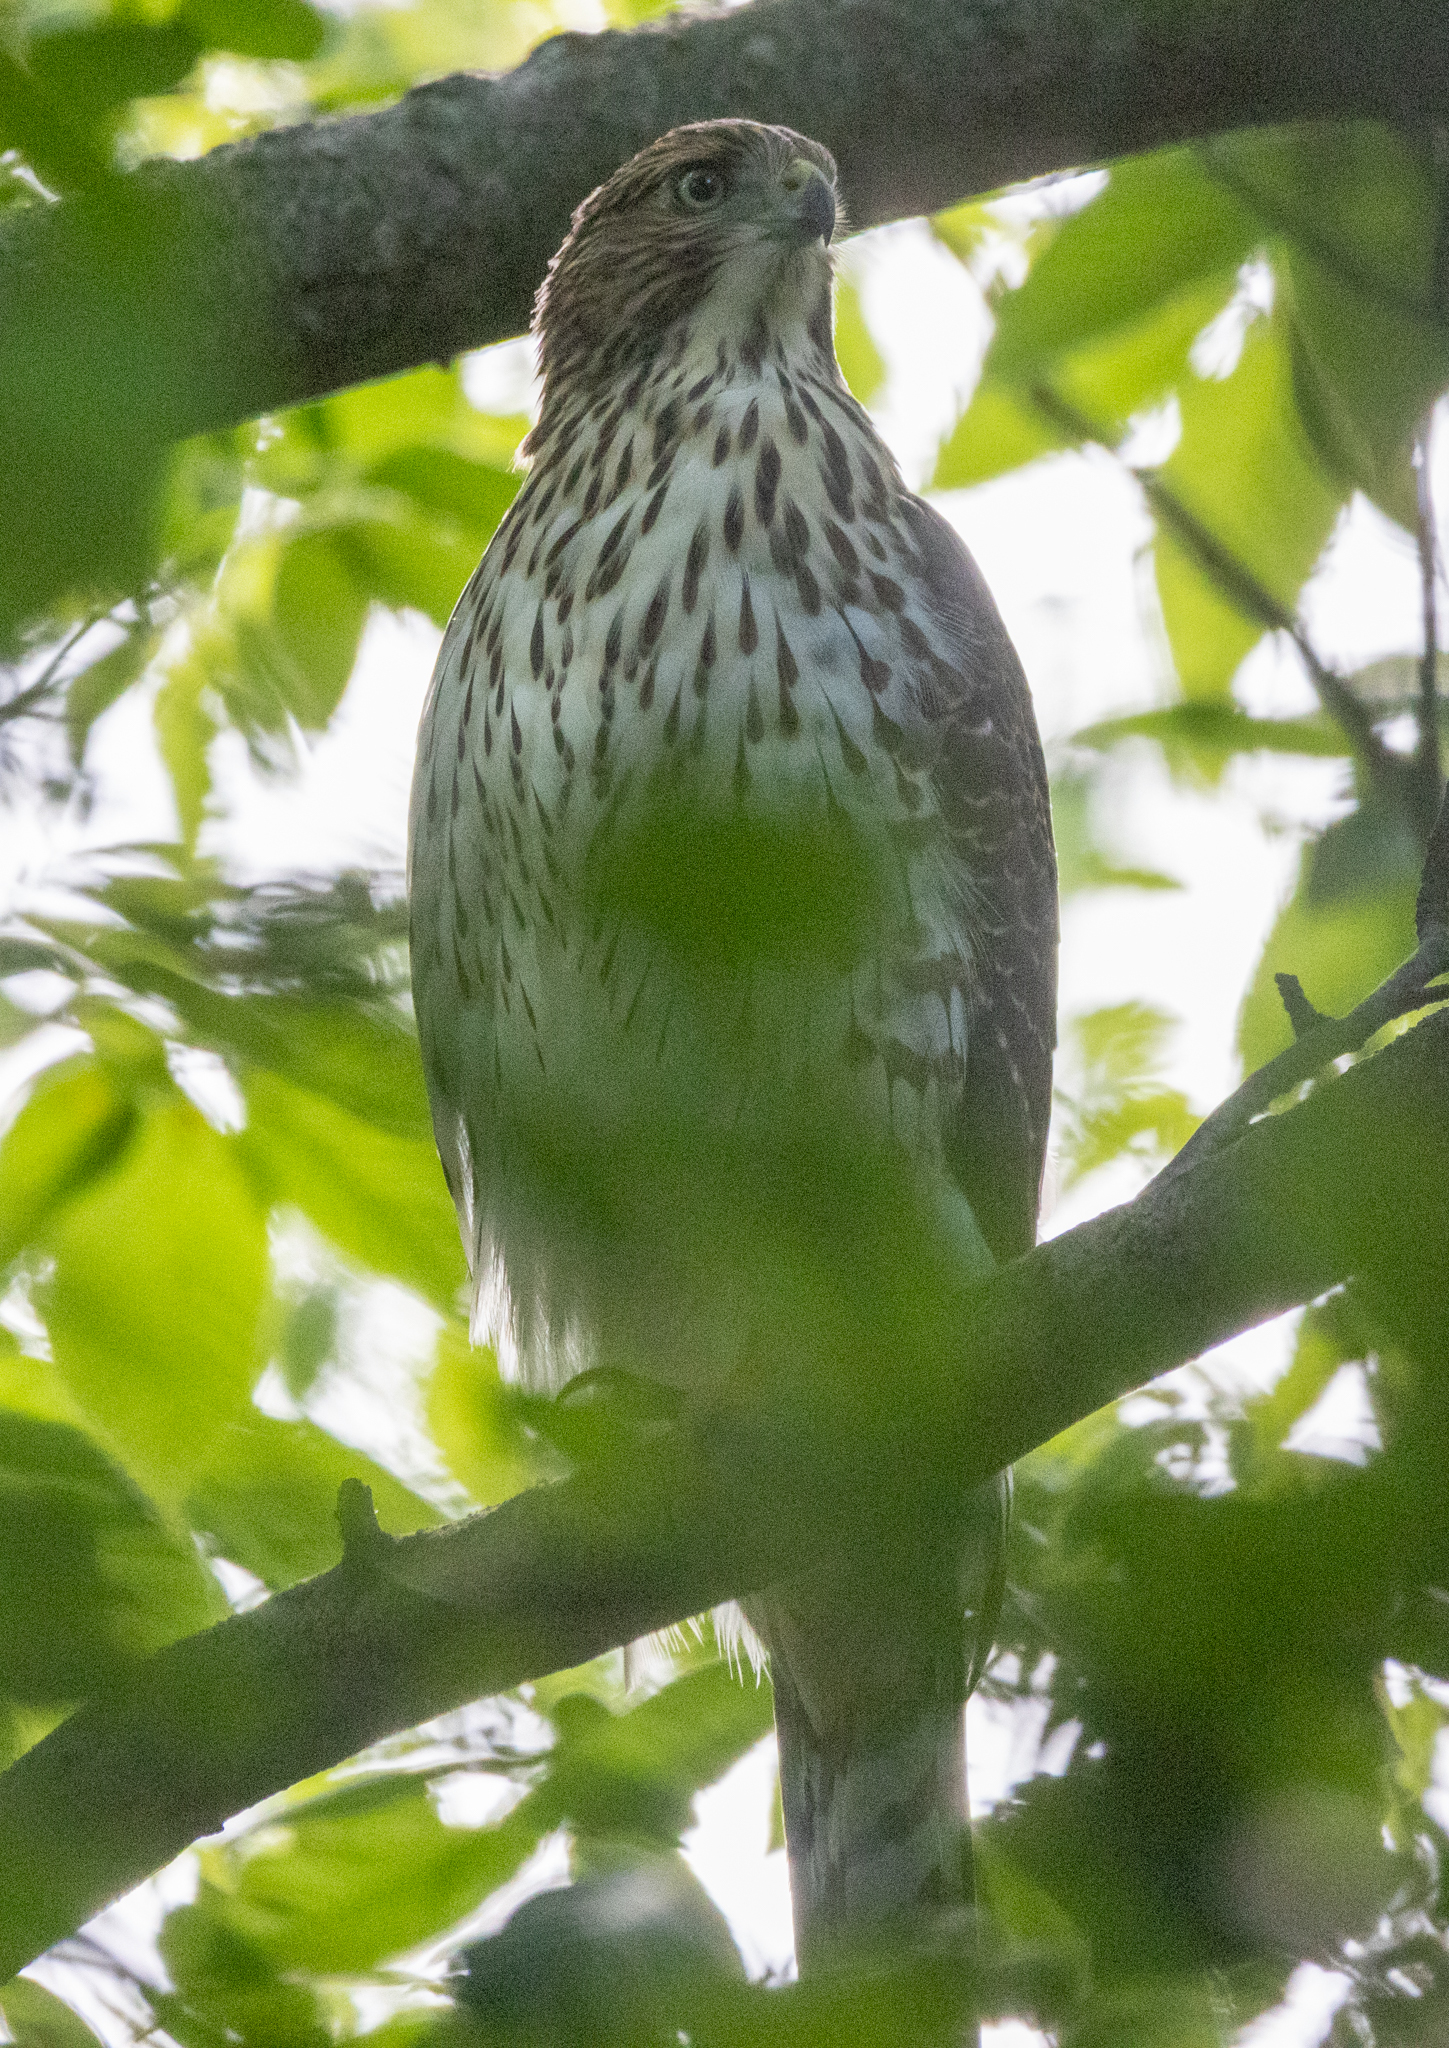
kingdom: Animalia
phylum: Chordata
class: Aves
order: Accipitriformes
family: Accipitridae
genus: Accipiter
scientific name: Accipiter cooperii
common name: Cooper's hawk
